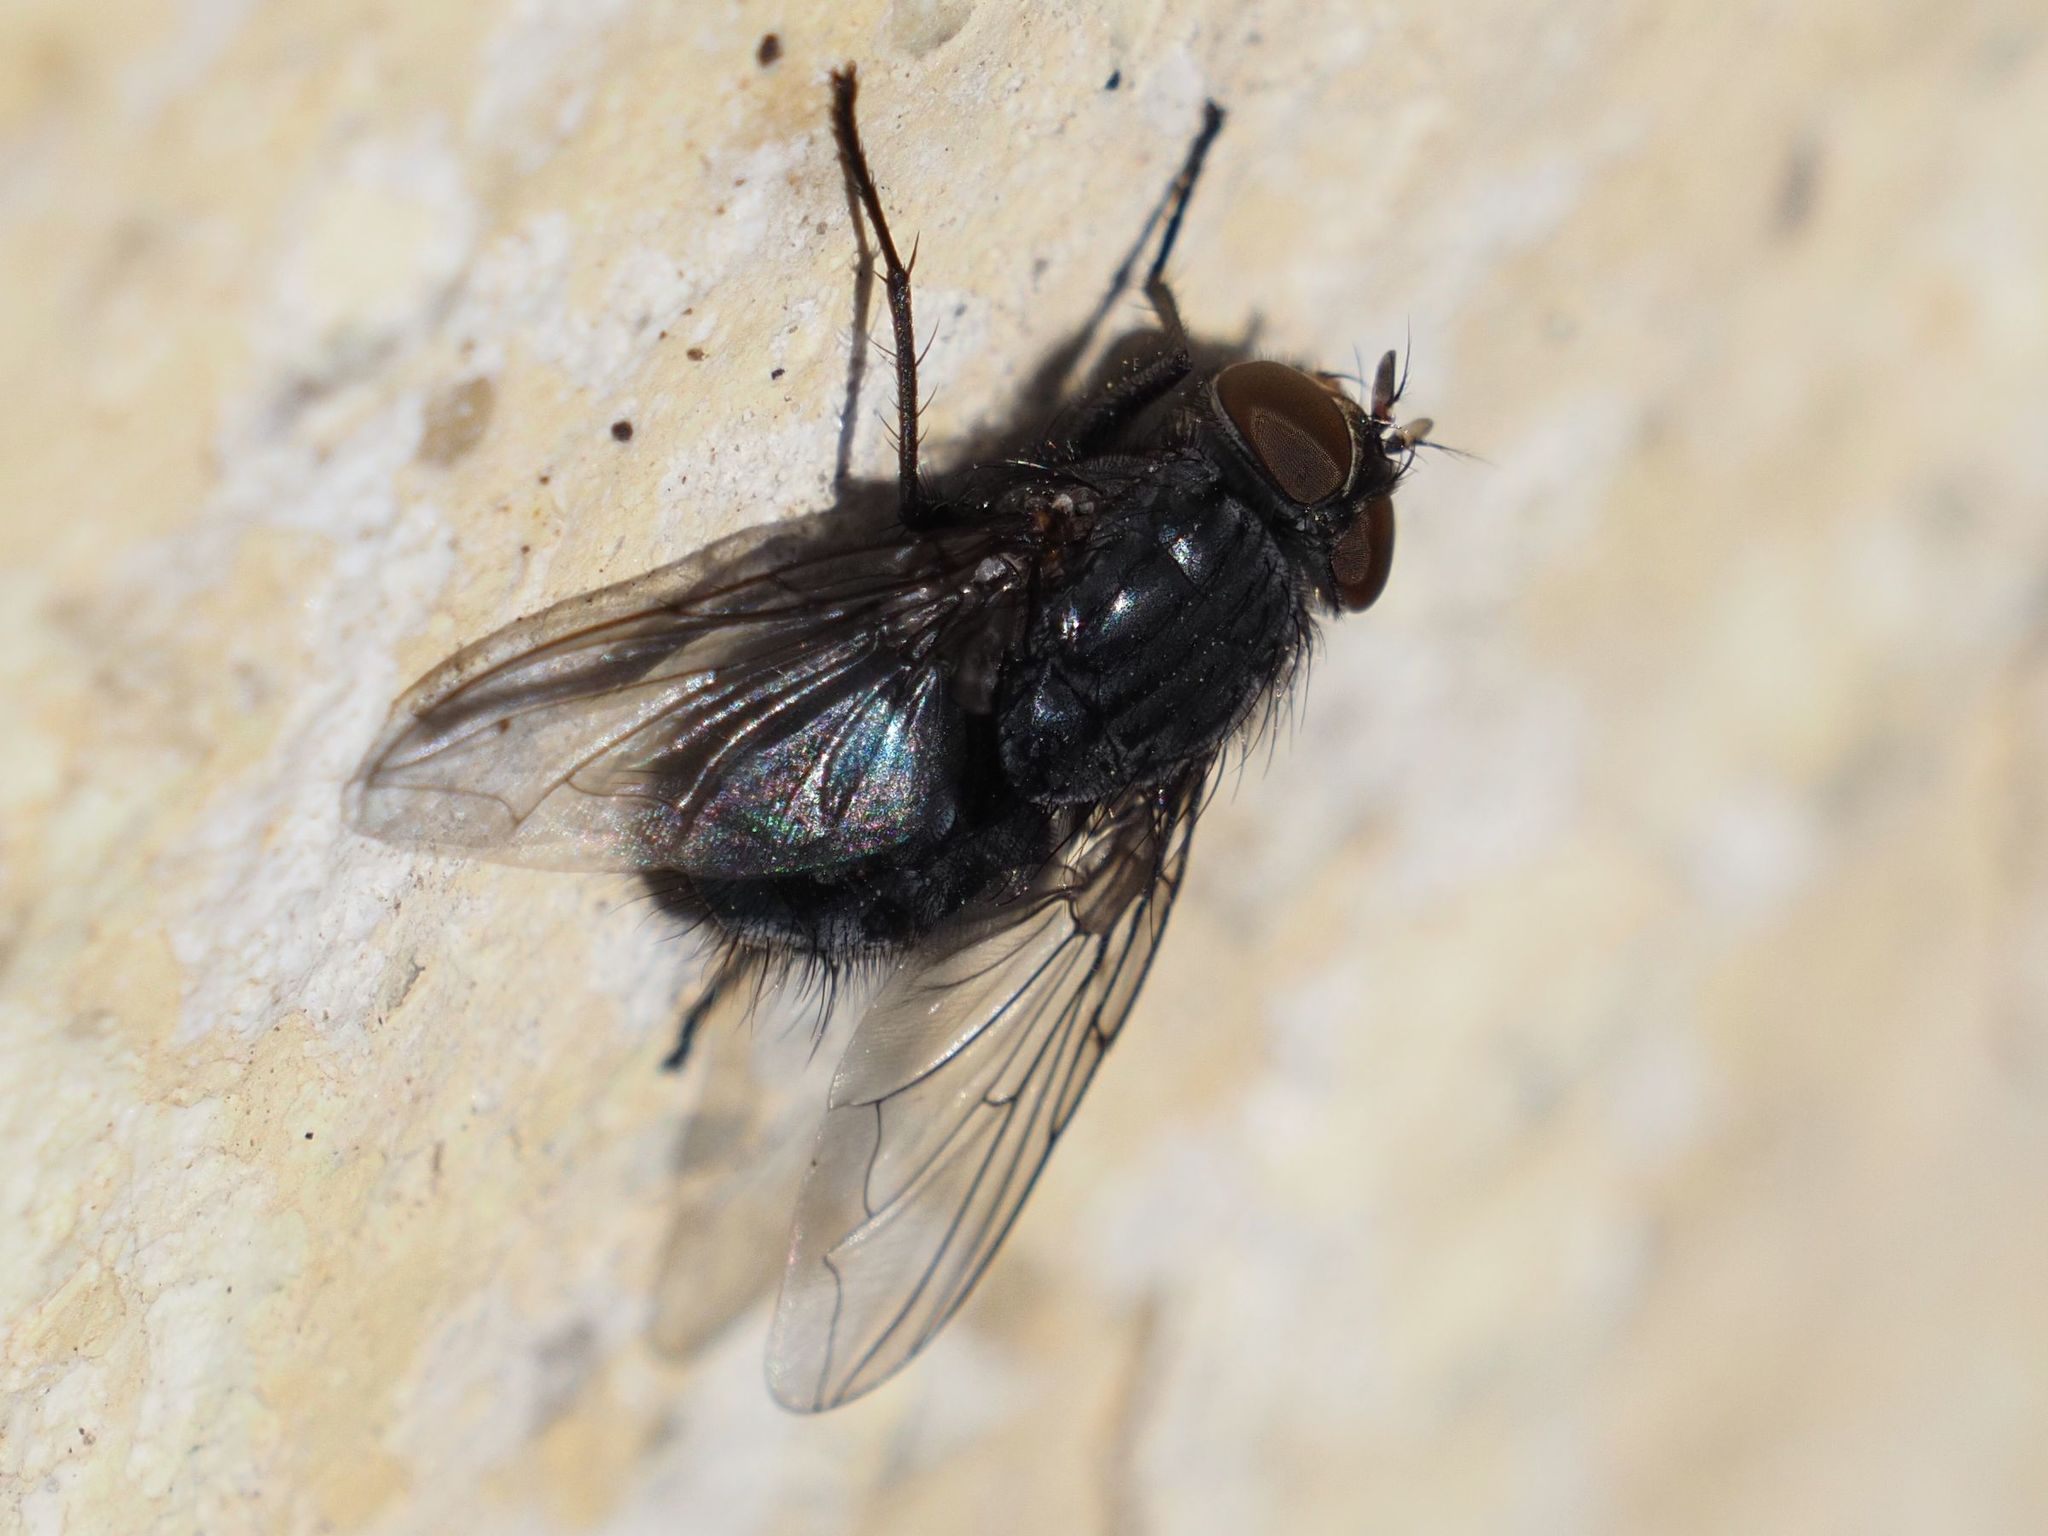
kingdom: Animalia
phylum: Arthropoda
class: Insecta
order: Diptera
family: Calliphoridae
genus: Calliphora
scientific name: Calliphora vicina
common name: Common blow flie
